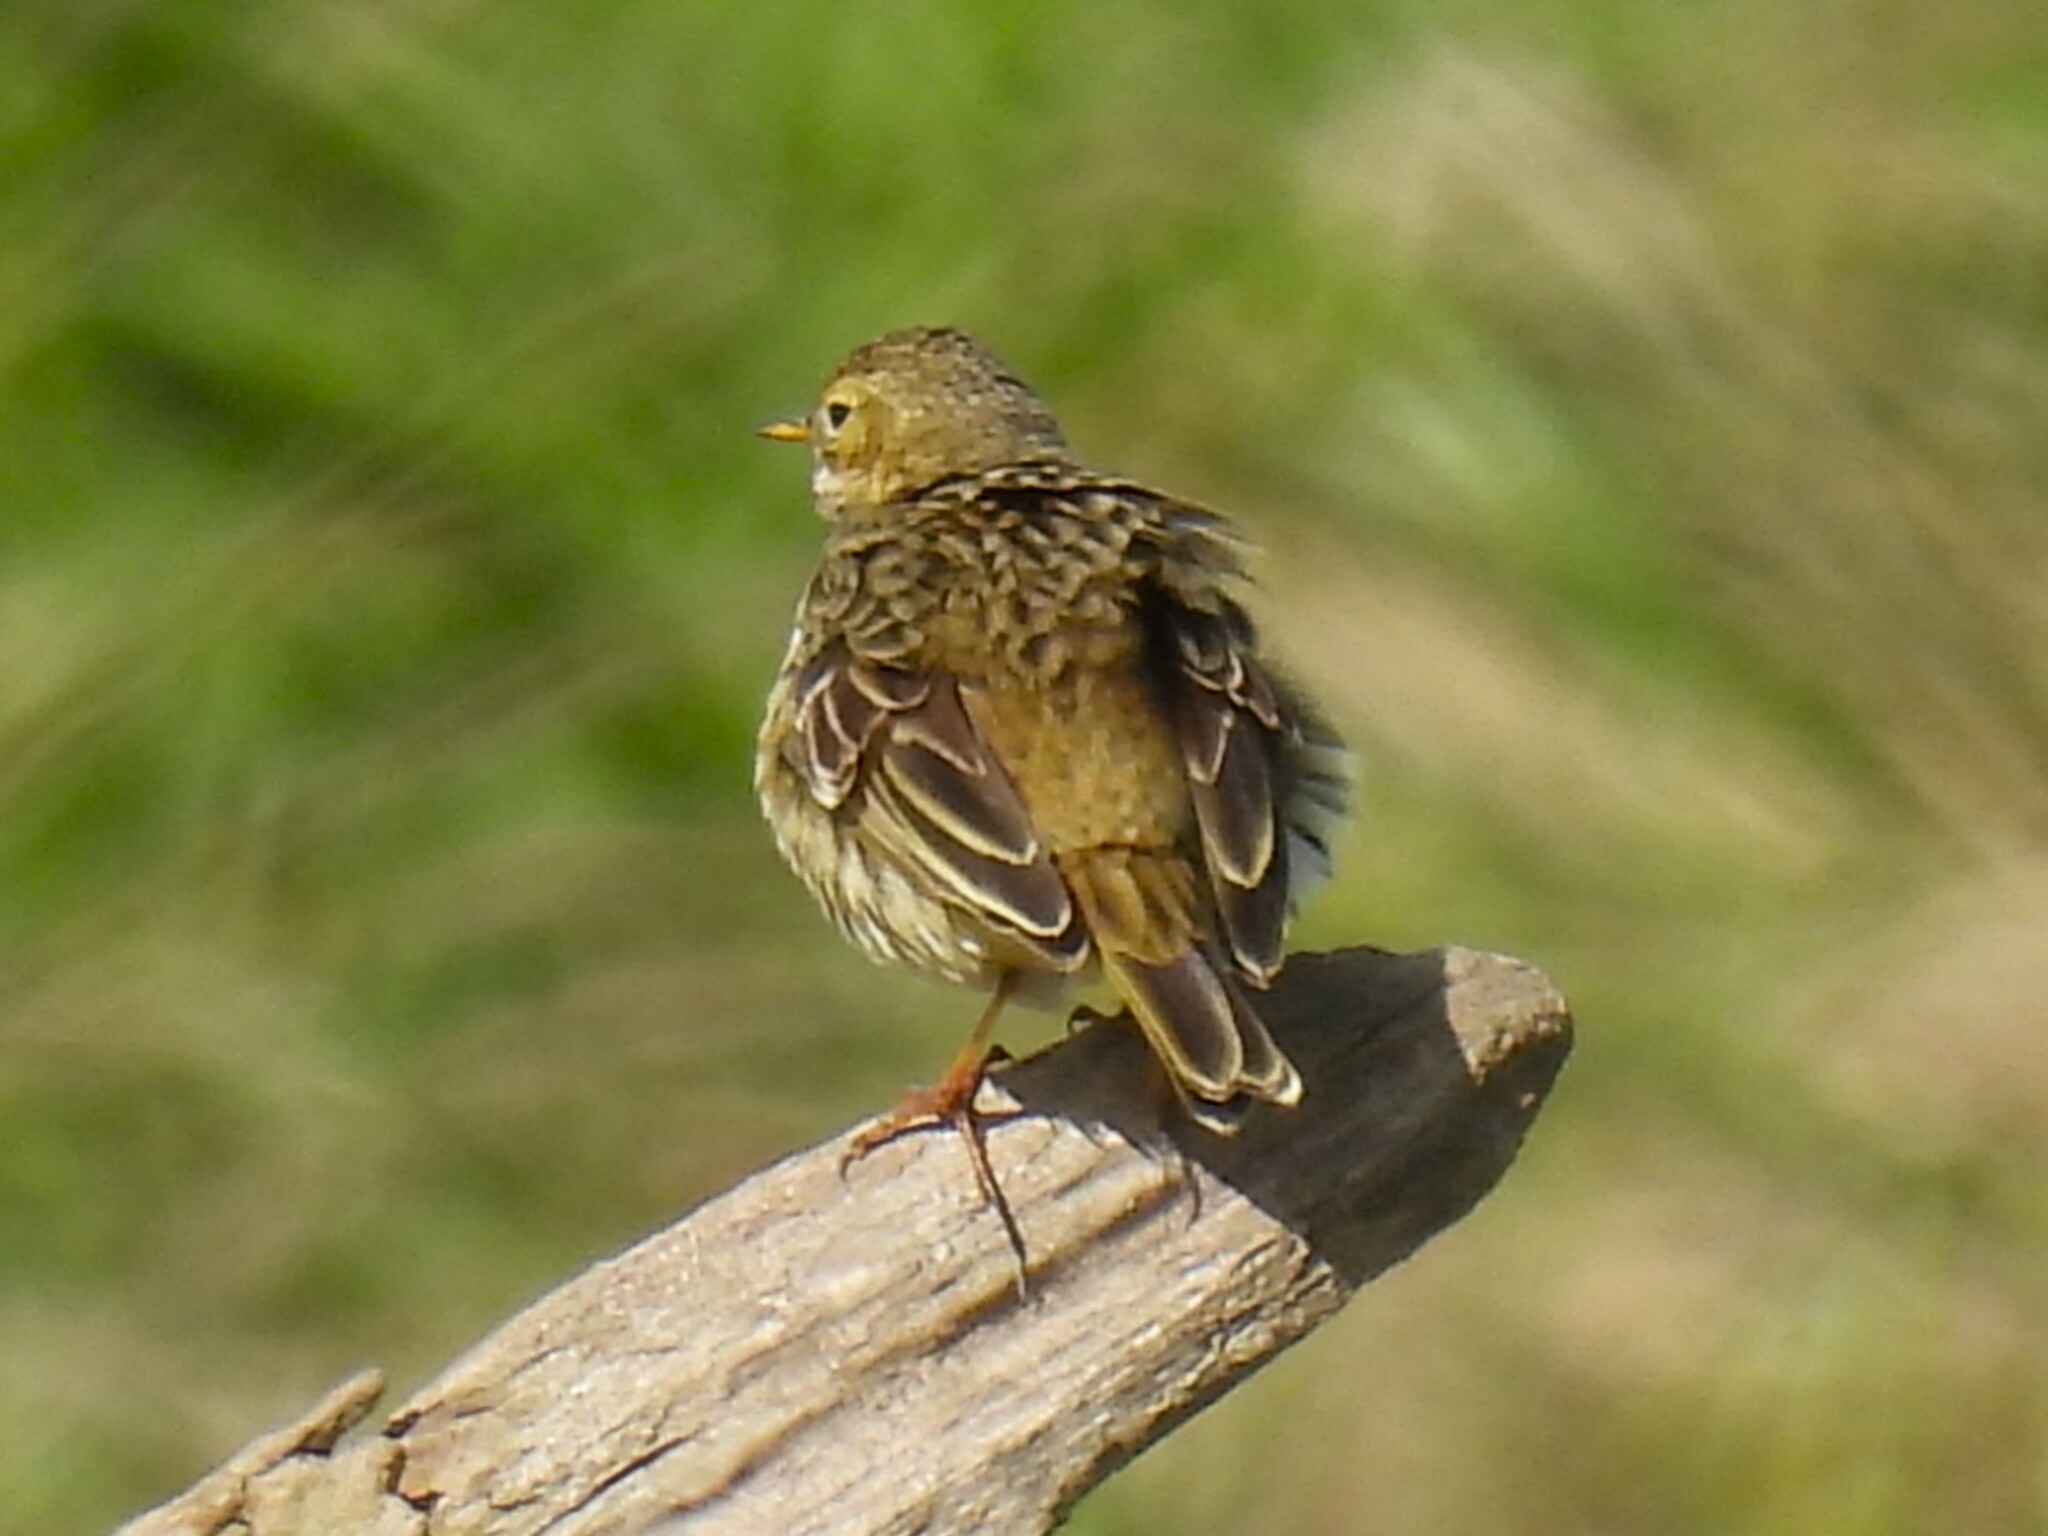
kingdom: Animalia
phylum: Chordata
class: Aves
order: Passeriformes
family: Motacillidae
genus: Anthus
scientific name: Anthus pratensis
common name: Meadow pipit
